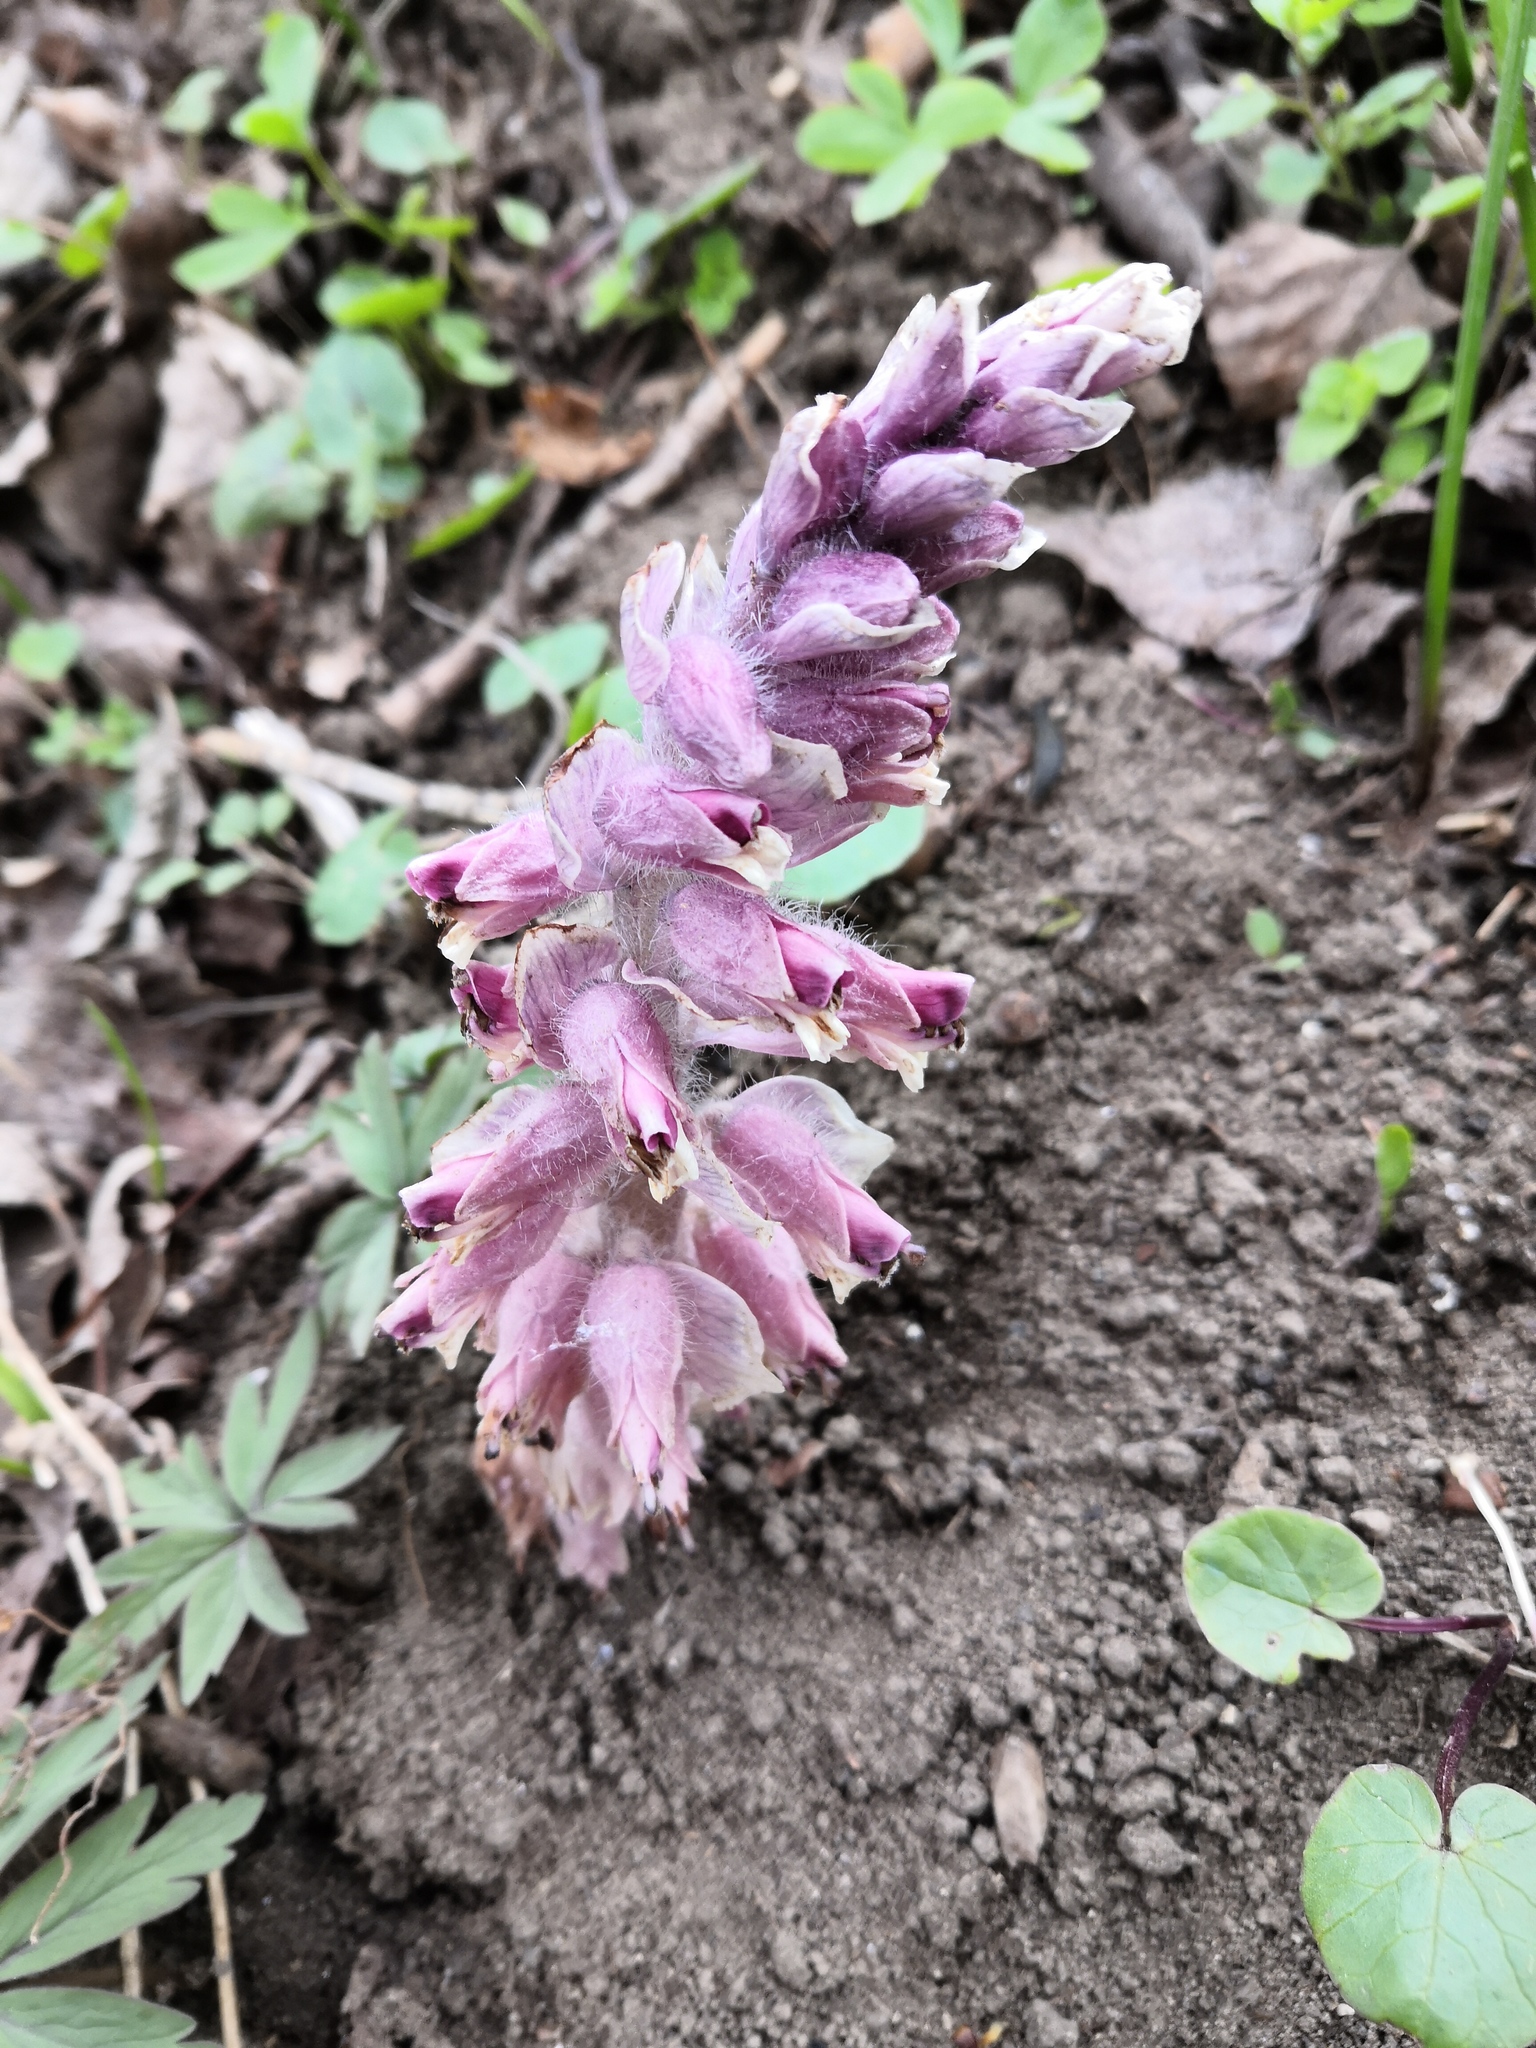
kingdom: Plantae
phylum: Tracheophyta
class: Magnoliopsida
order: Lamiales
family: Orobanchaceae
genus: Lathraea
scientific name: Lathraea squamaria
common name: Toothwort
